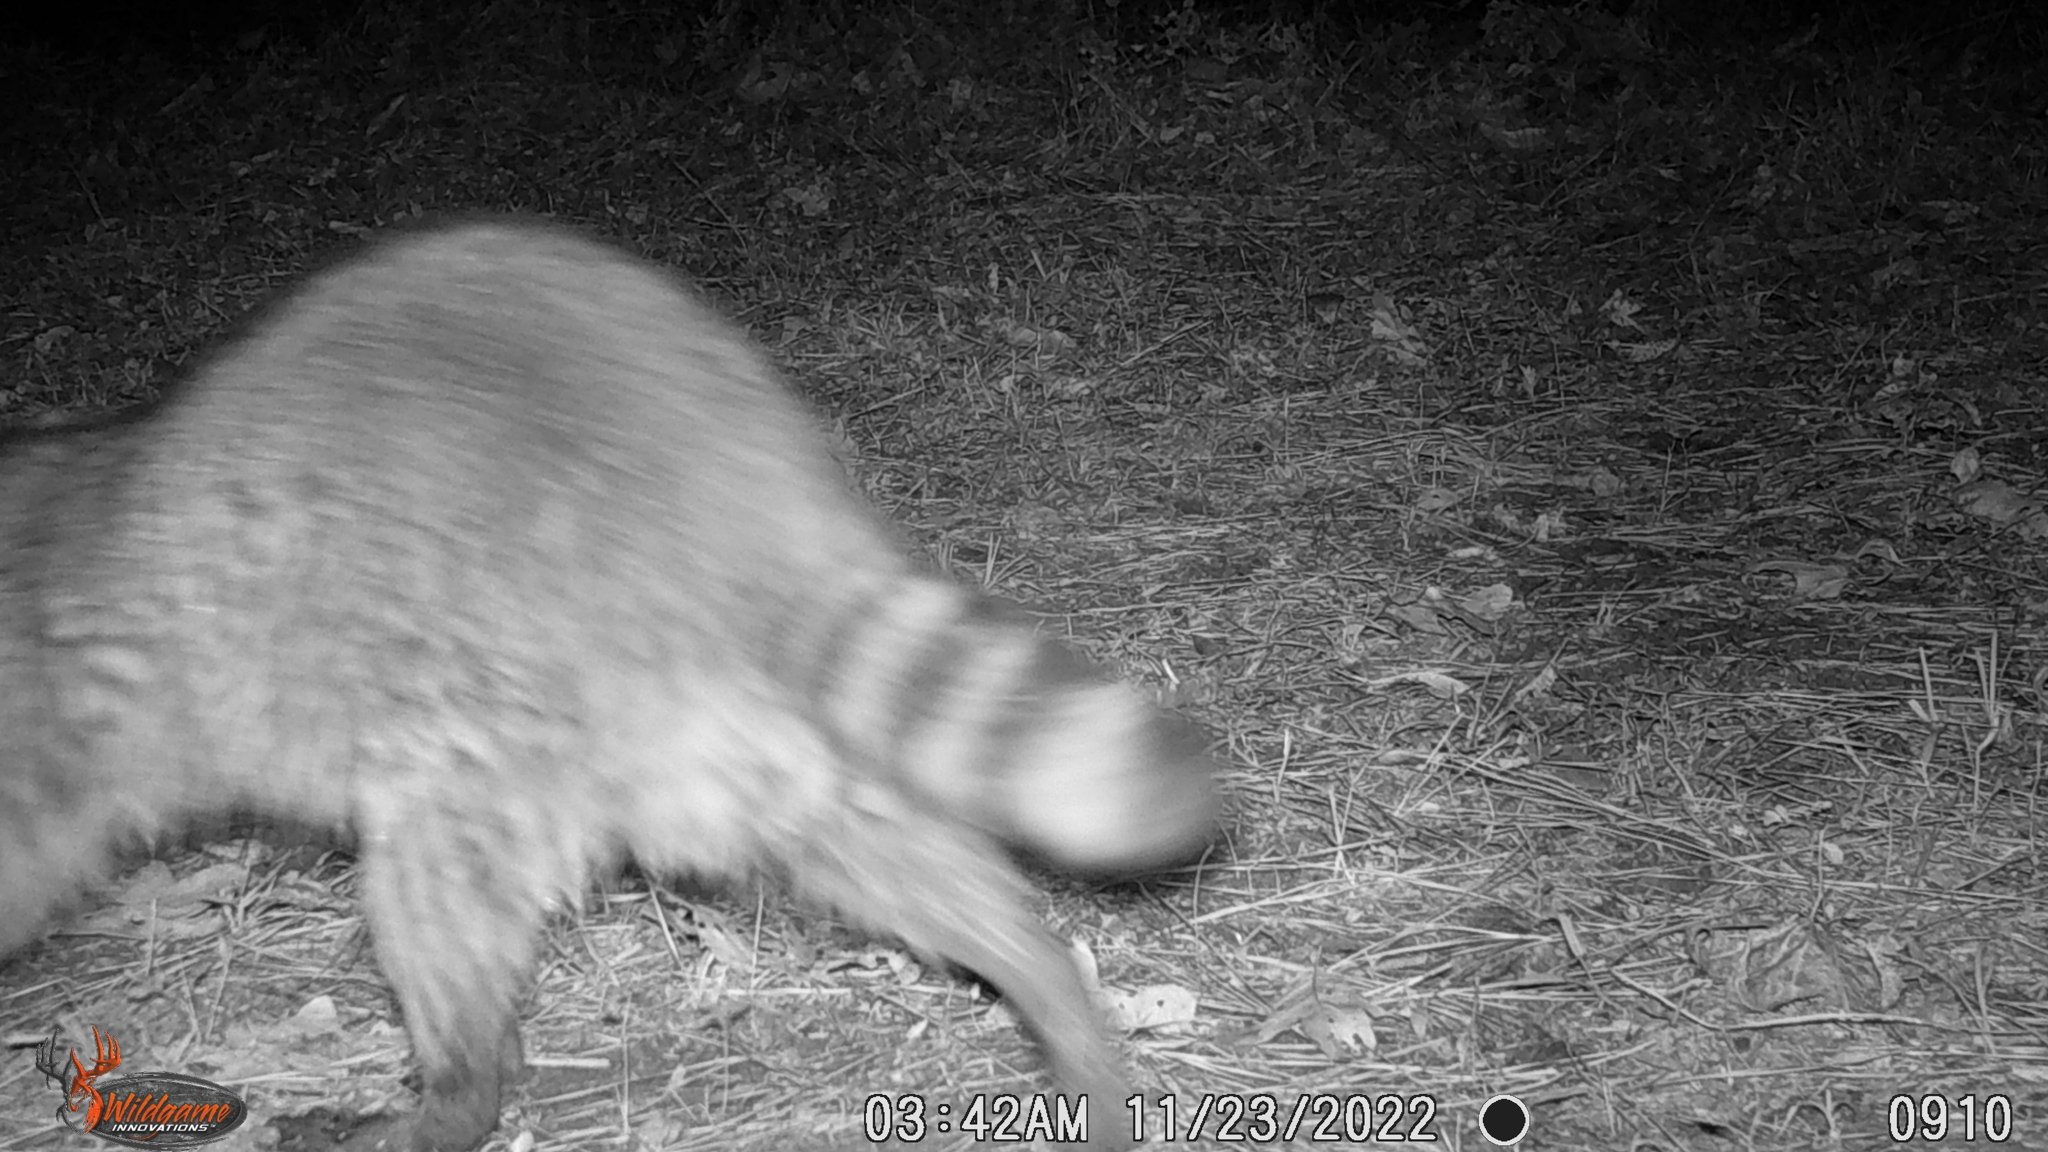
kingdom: Animalia
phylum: Chordata
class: Mammalia
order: Carnivora
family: Procyonidae
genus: Procyon
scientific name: Procyon lotor
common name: Raccoon
